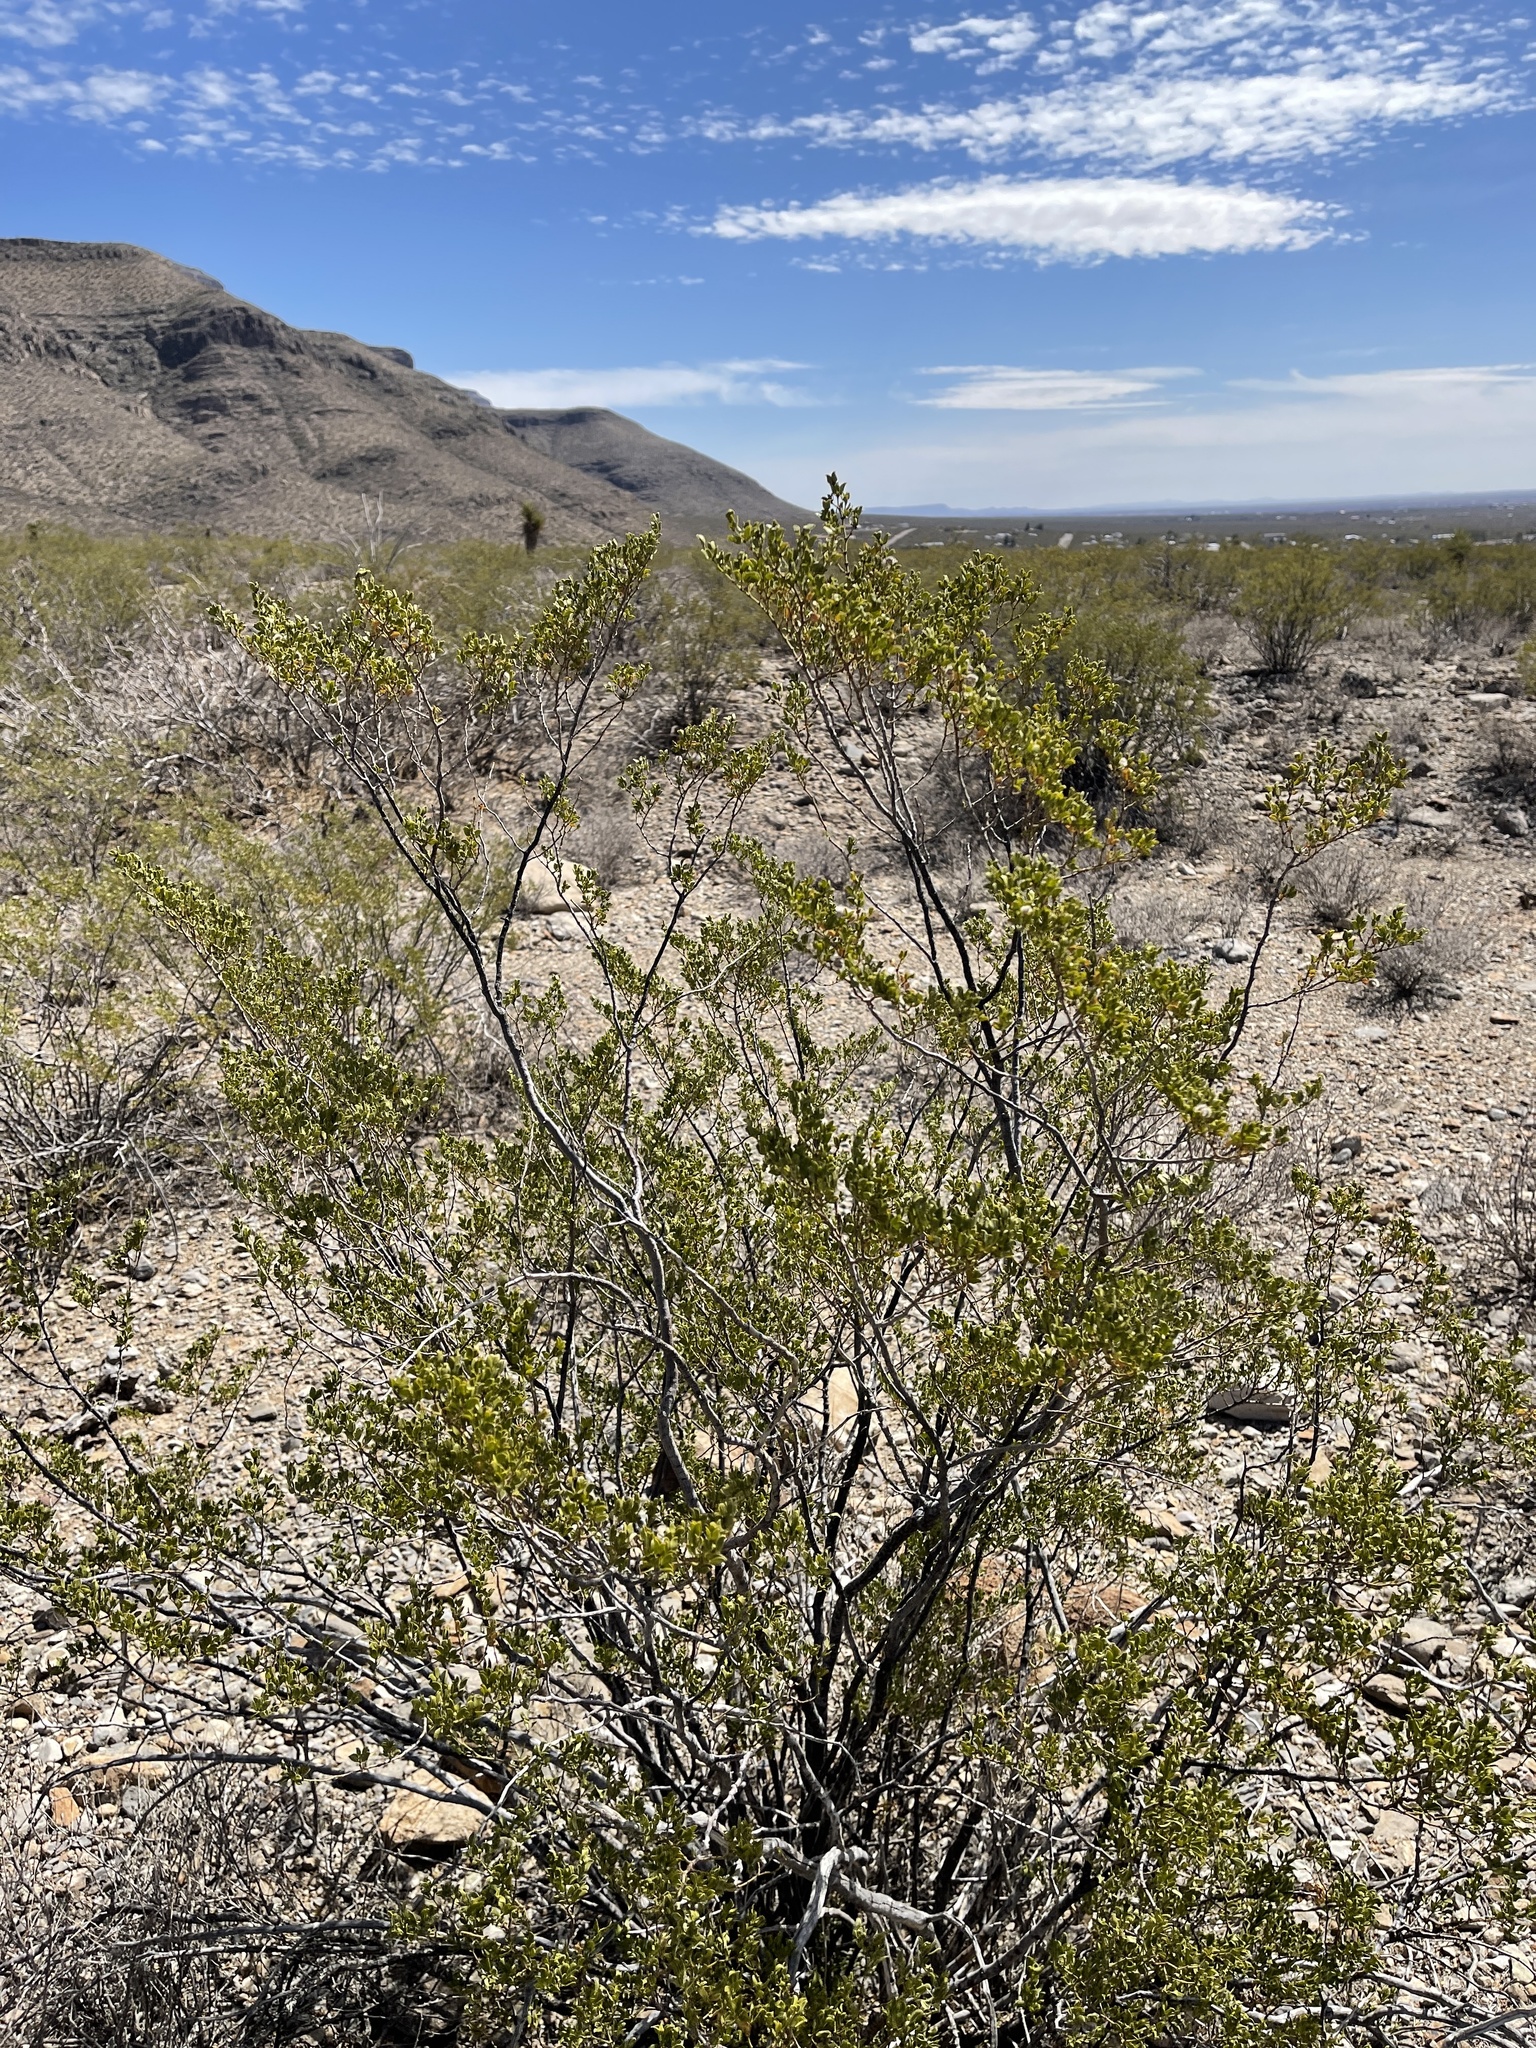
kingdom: Plantae
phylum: Tracheophyta
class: Magnoliopsida
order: Zygophyllales
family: Zygophyllaceae
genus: Larrea
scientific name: Larrea tridentata
